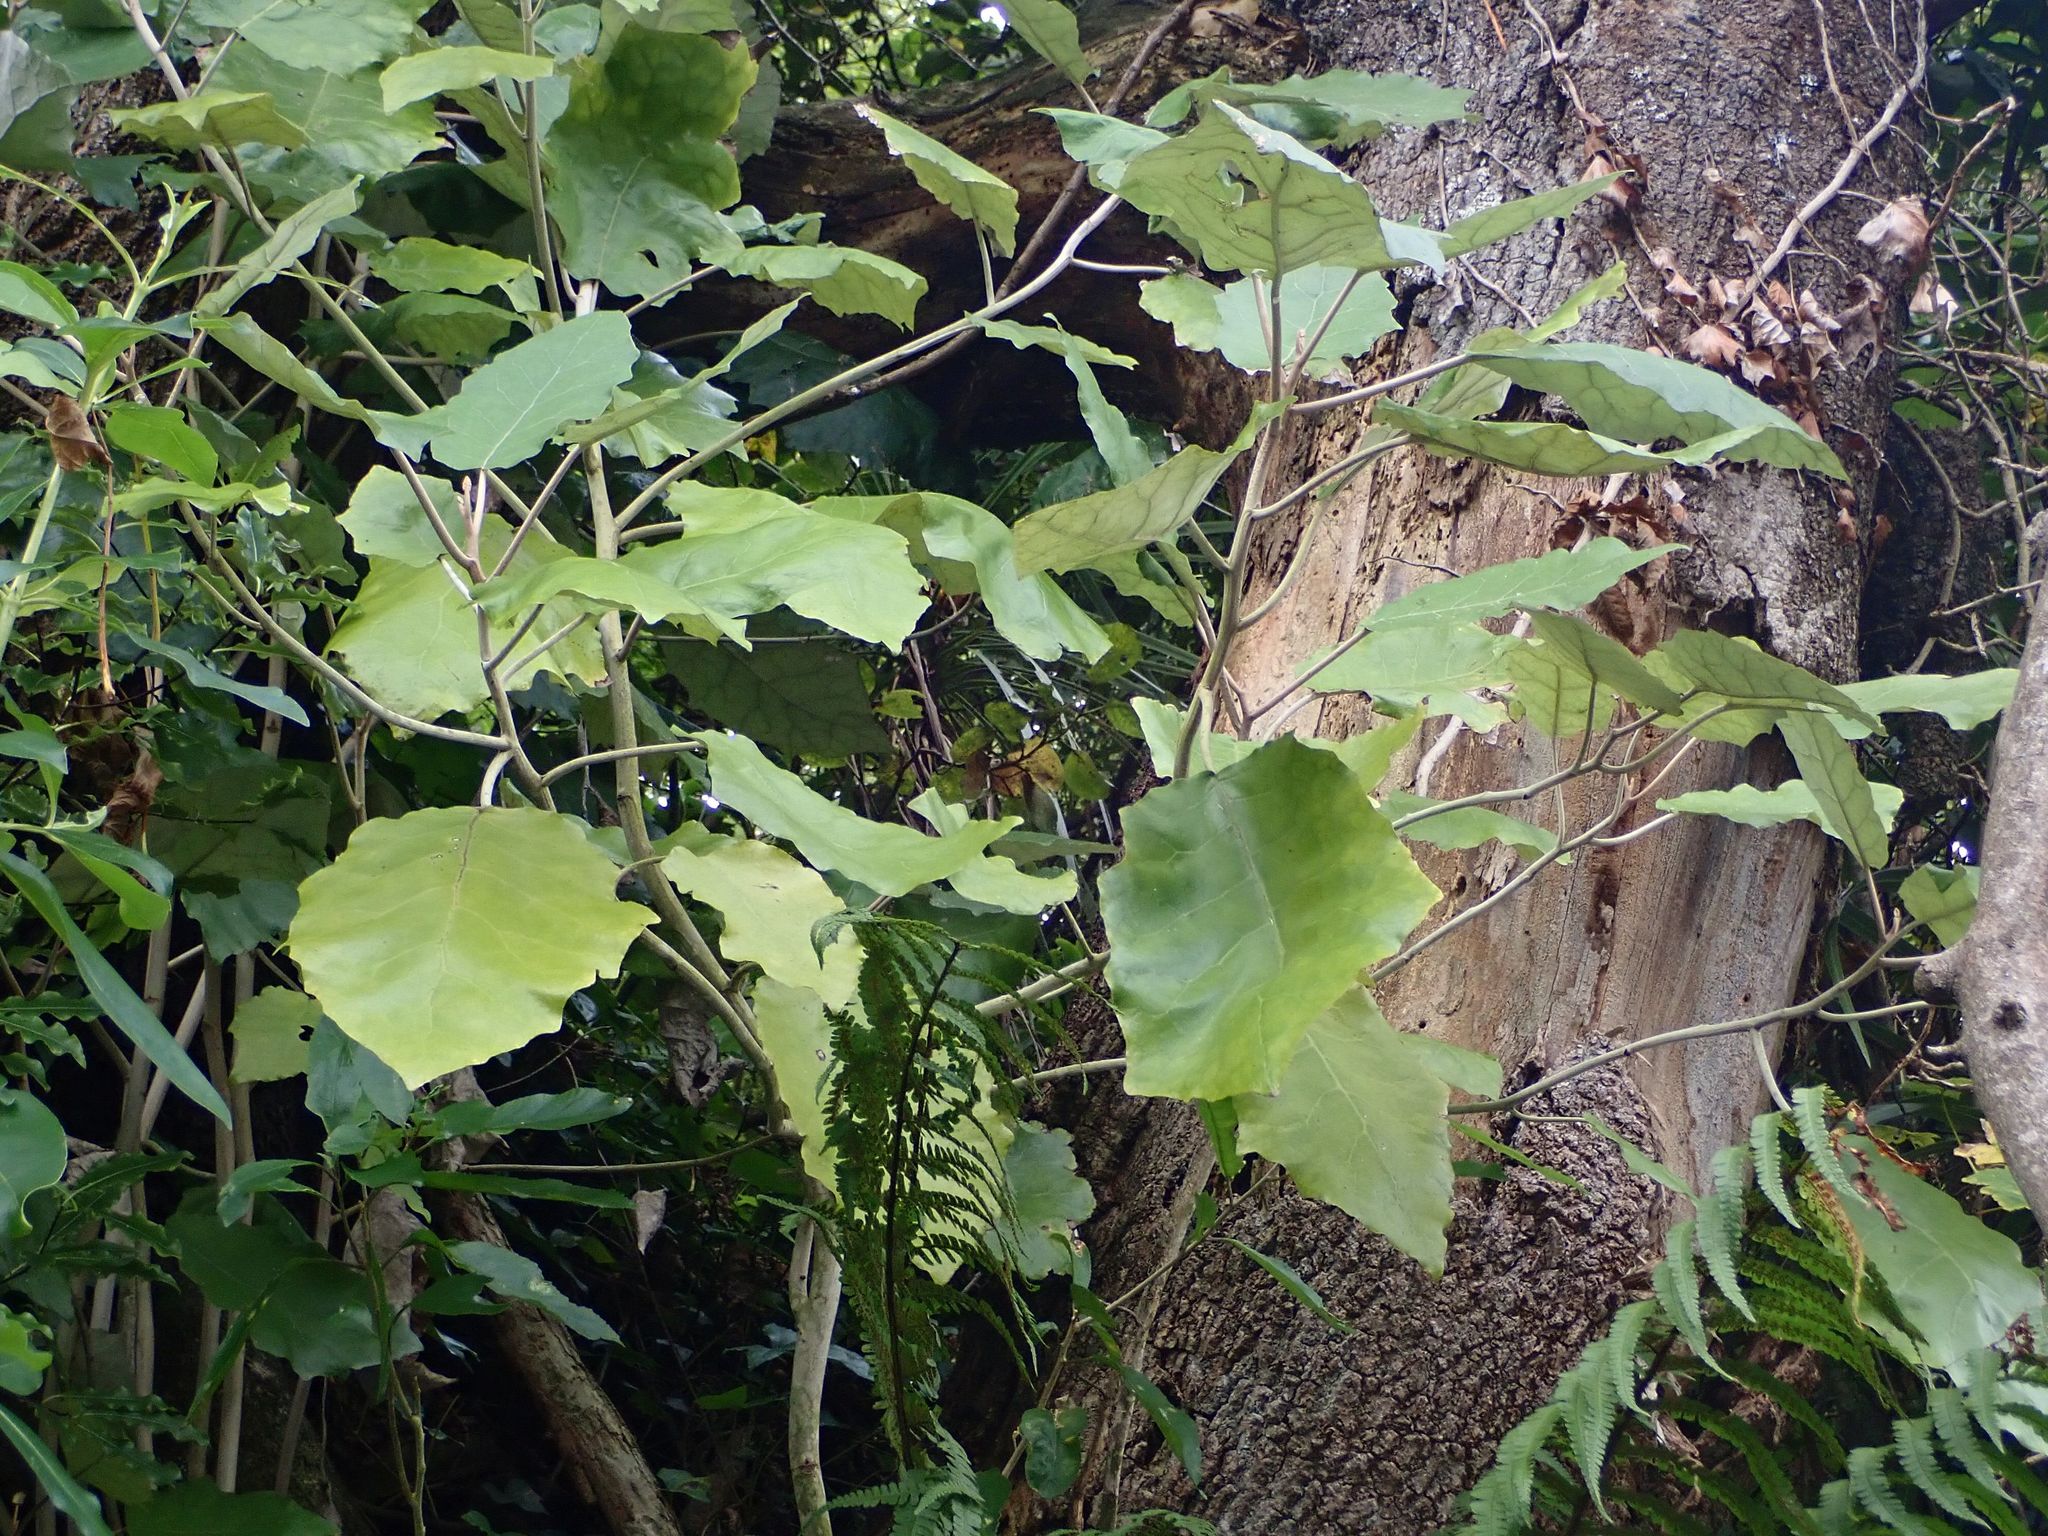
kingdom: Plantae
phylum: Tracheophyta
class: Magnoliopsida
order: Asterales
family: Asteraceae
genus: Brachyglottis
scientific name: Brachyglottis repanda
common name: Hedge ragwort
